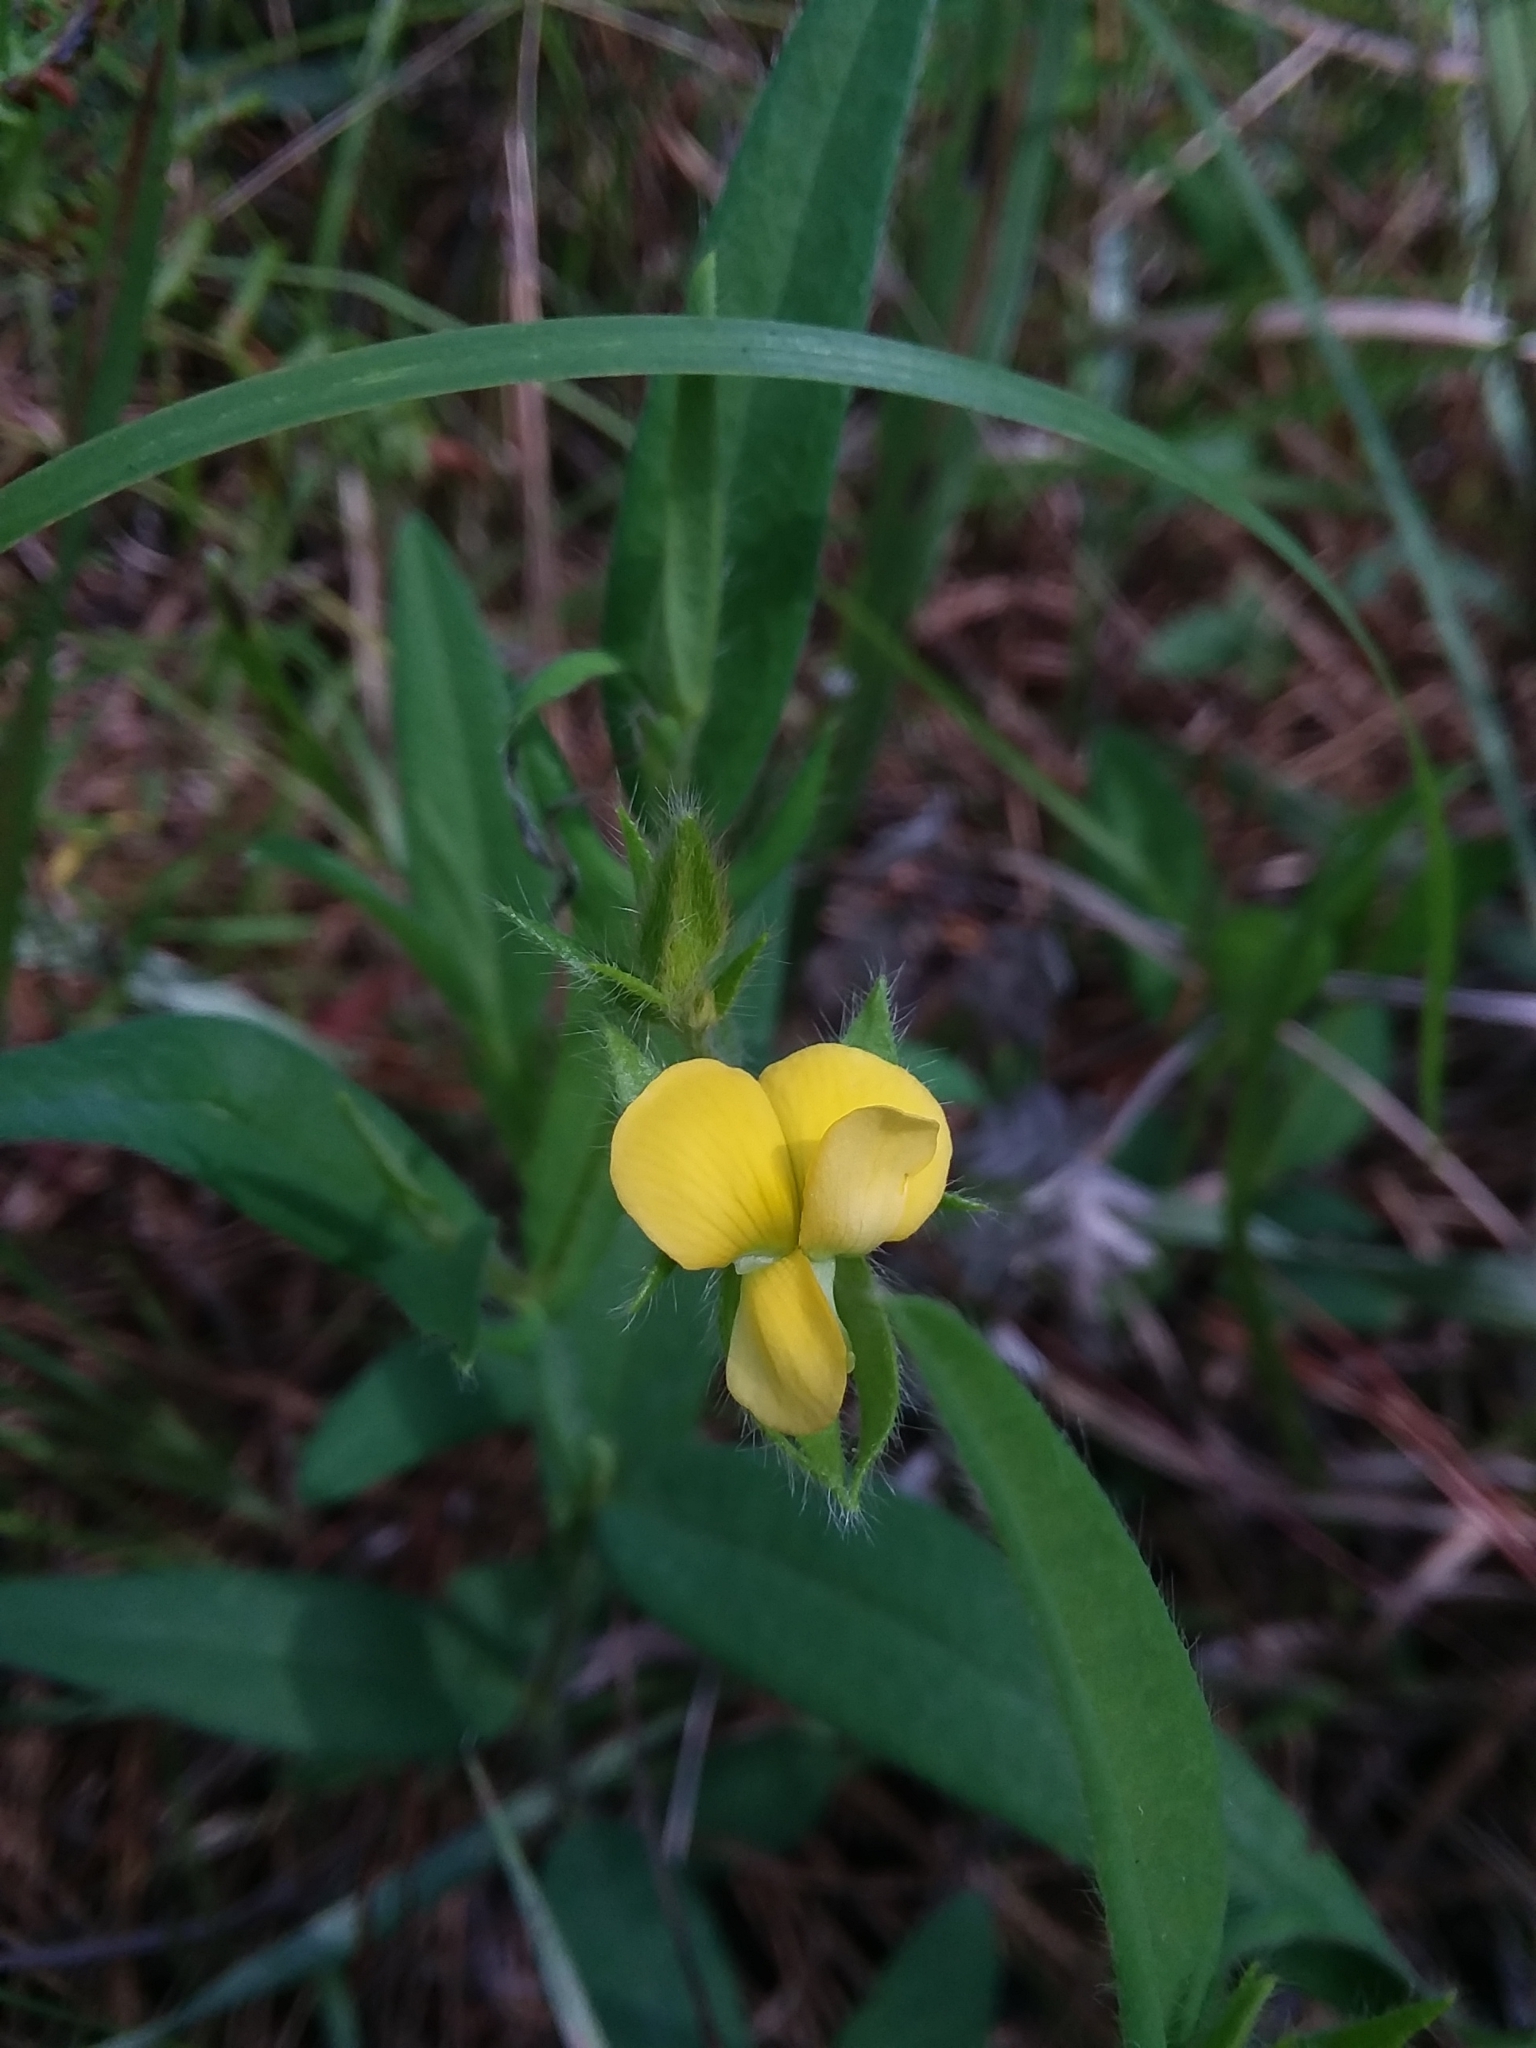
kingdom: Plantae
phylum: Tracheophyta
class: Magnoliopsida
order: Fabales
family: Fabaceae
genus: Crotalaria
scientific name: Crotalaria sagittalis
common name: Arrowhead rattlebox
